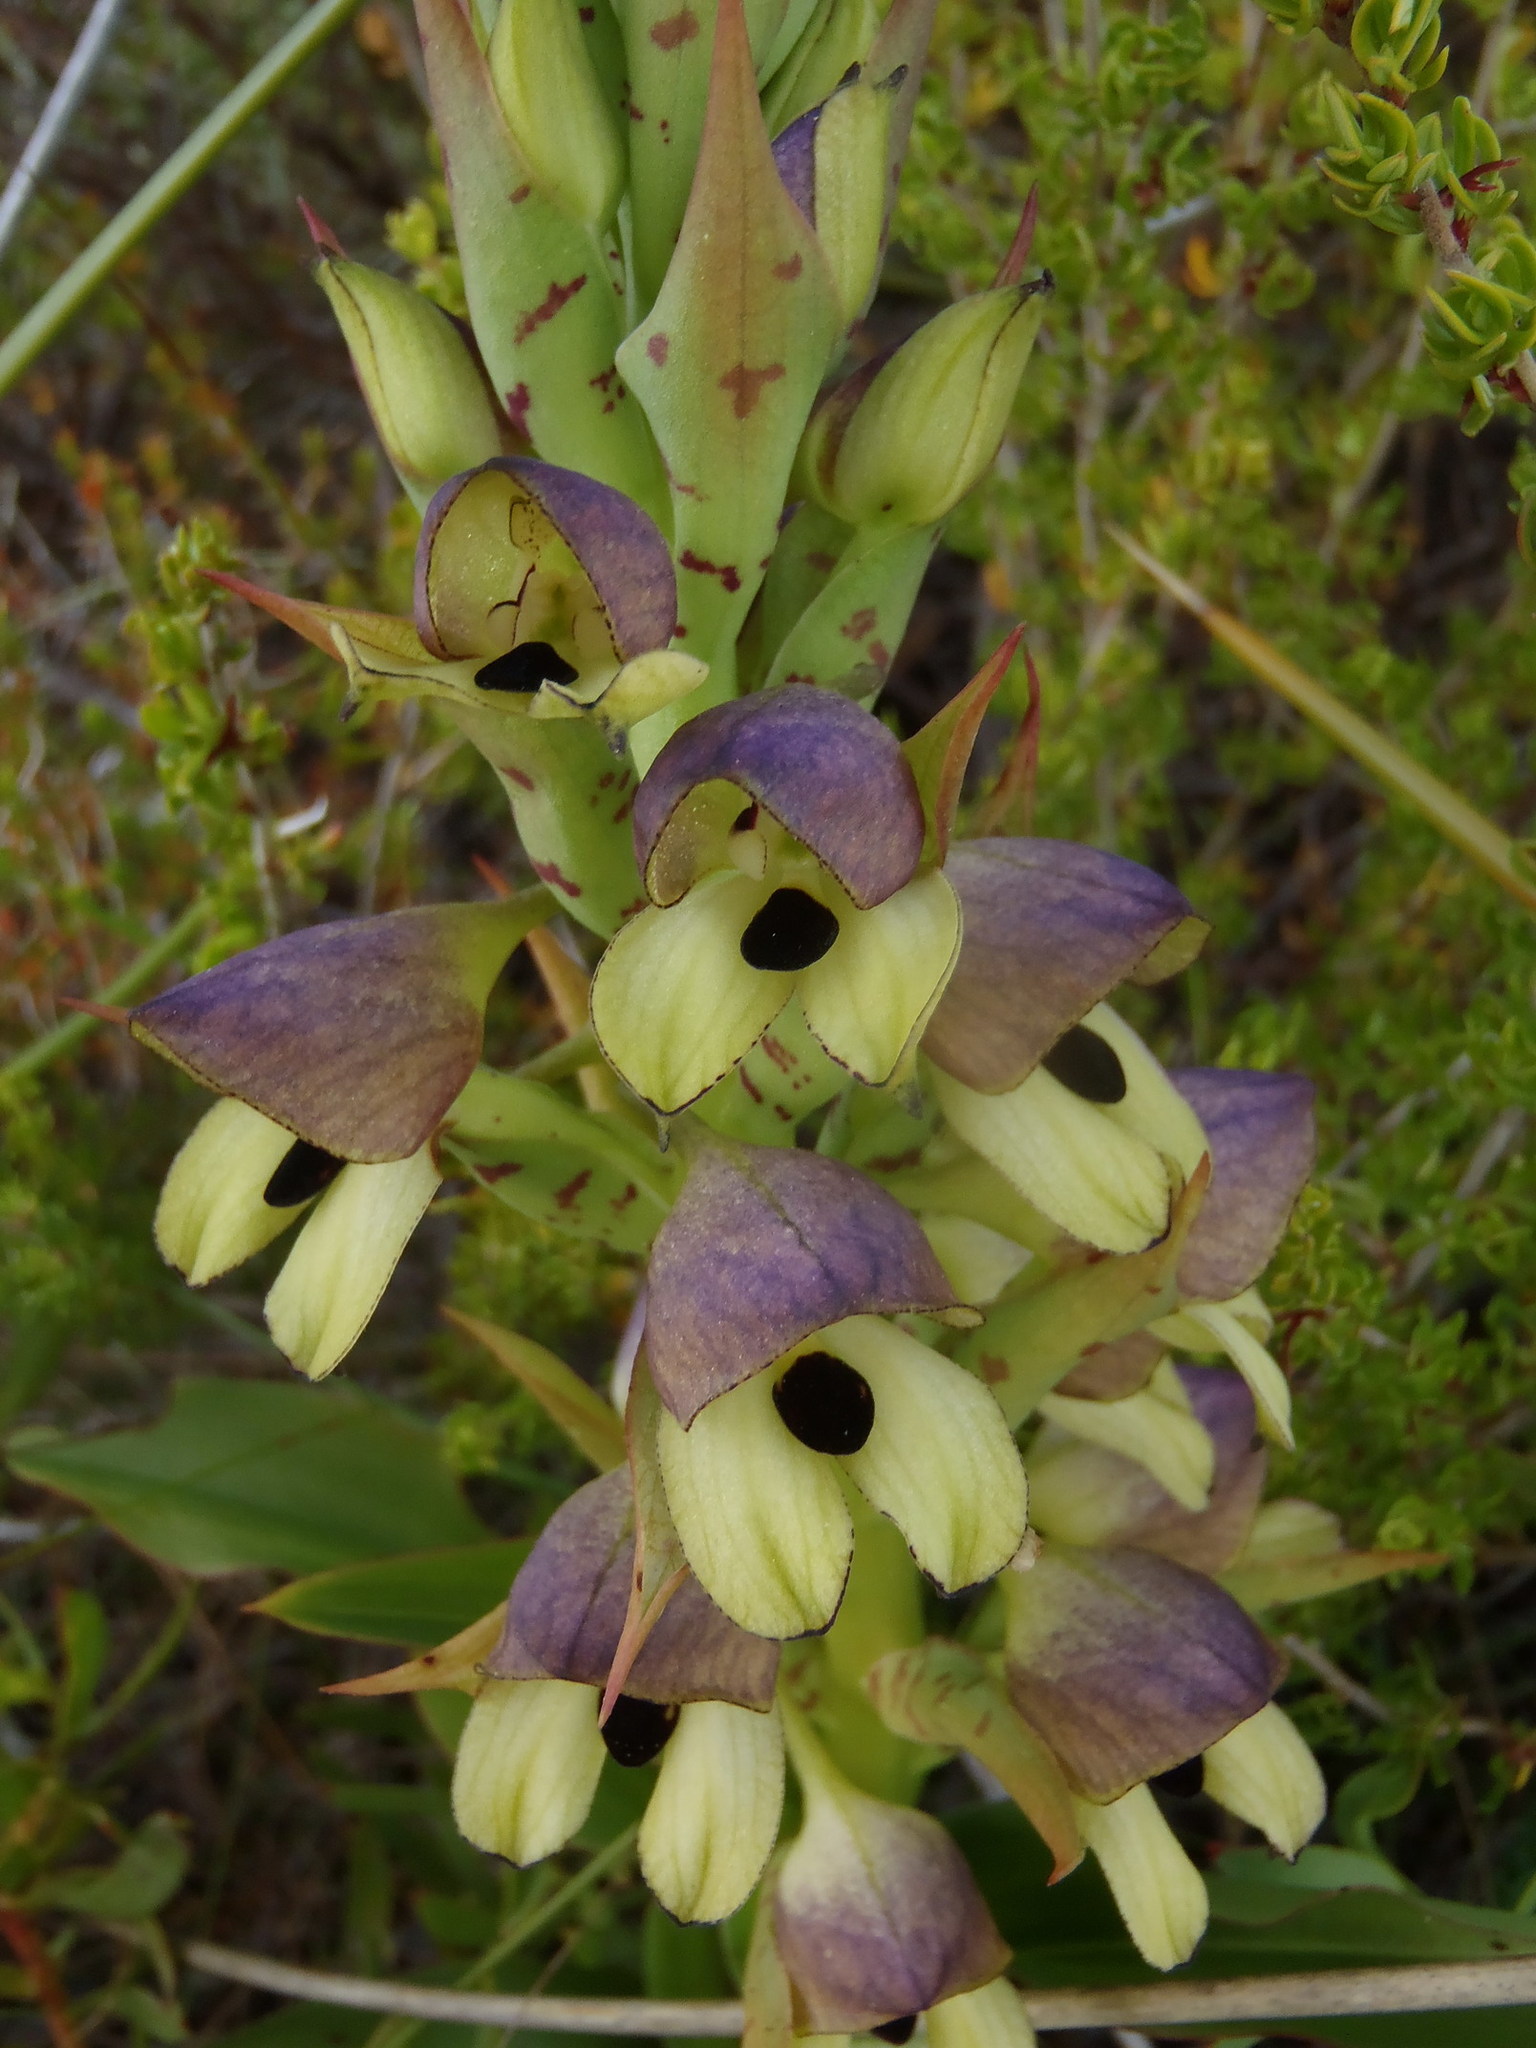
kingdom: Plantae
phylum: Tracheophyta
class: Liliopsida
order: Asparagales
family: Orchidaceae
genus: Disa
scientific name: Disa cornuta
